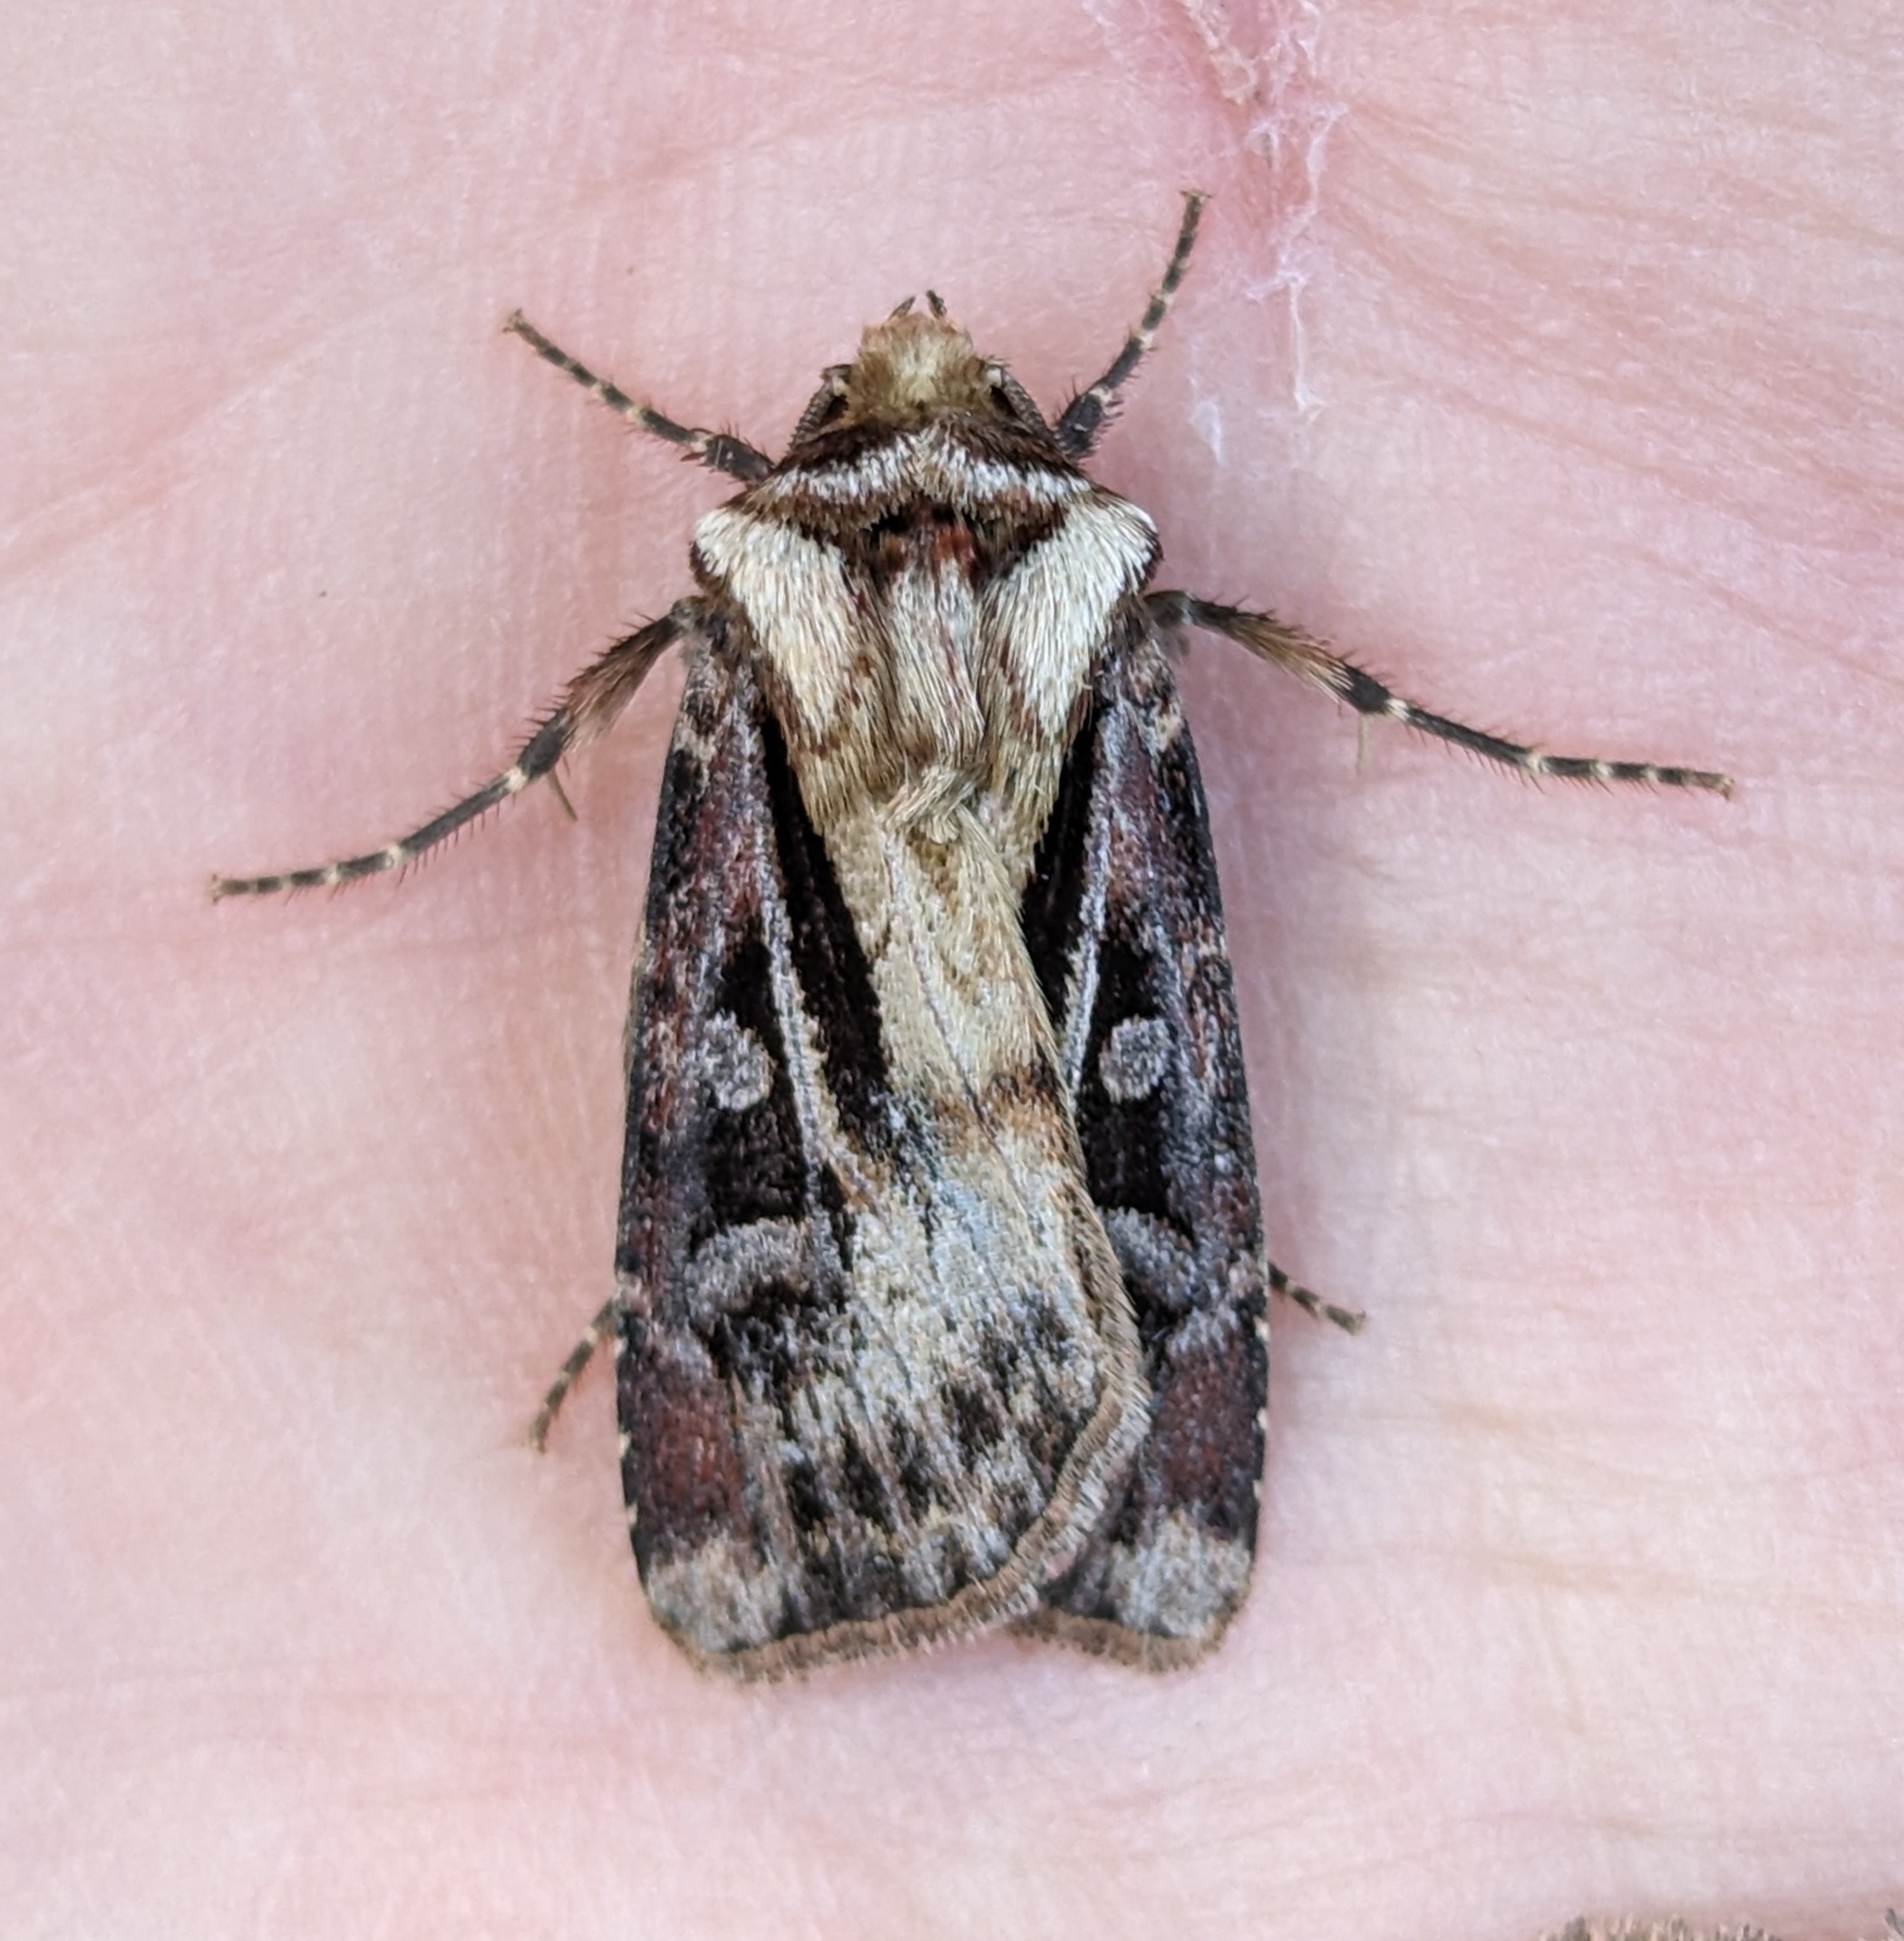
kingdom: Animalia
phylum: Arthropoda
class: Insecta
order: Lepidoptera
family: Noctuidae
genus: Agrotis
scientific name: Agrotis vancouverensis
